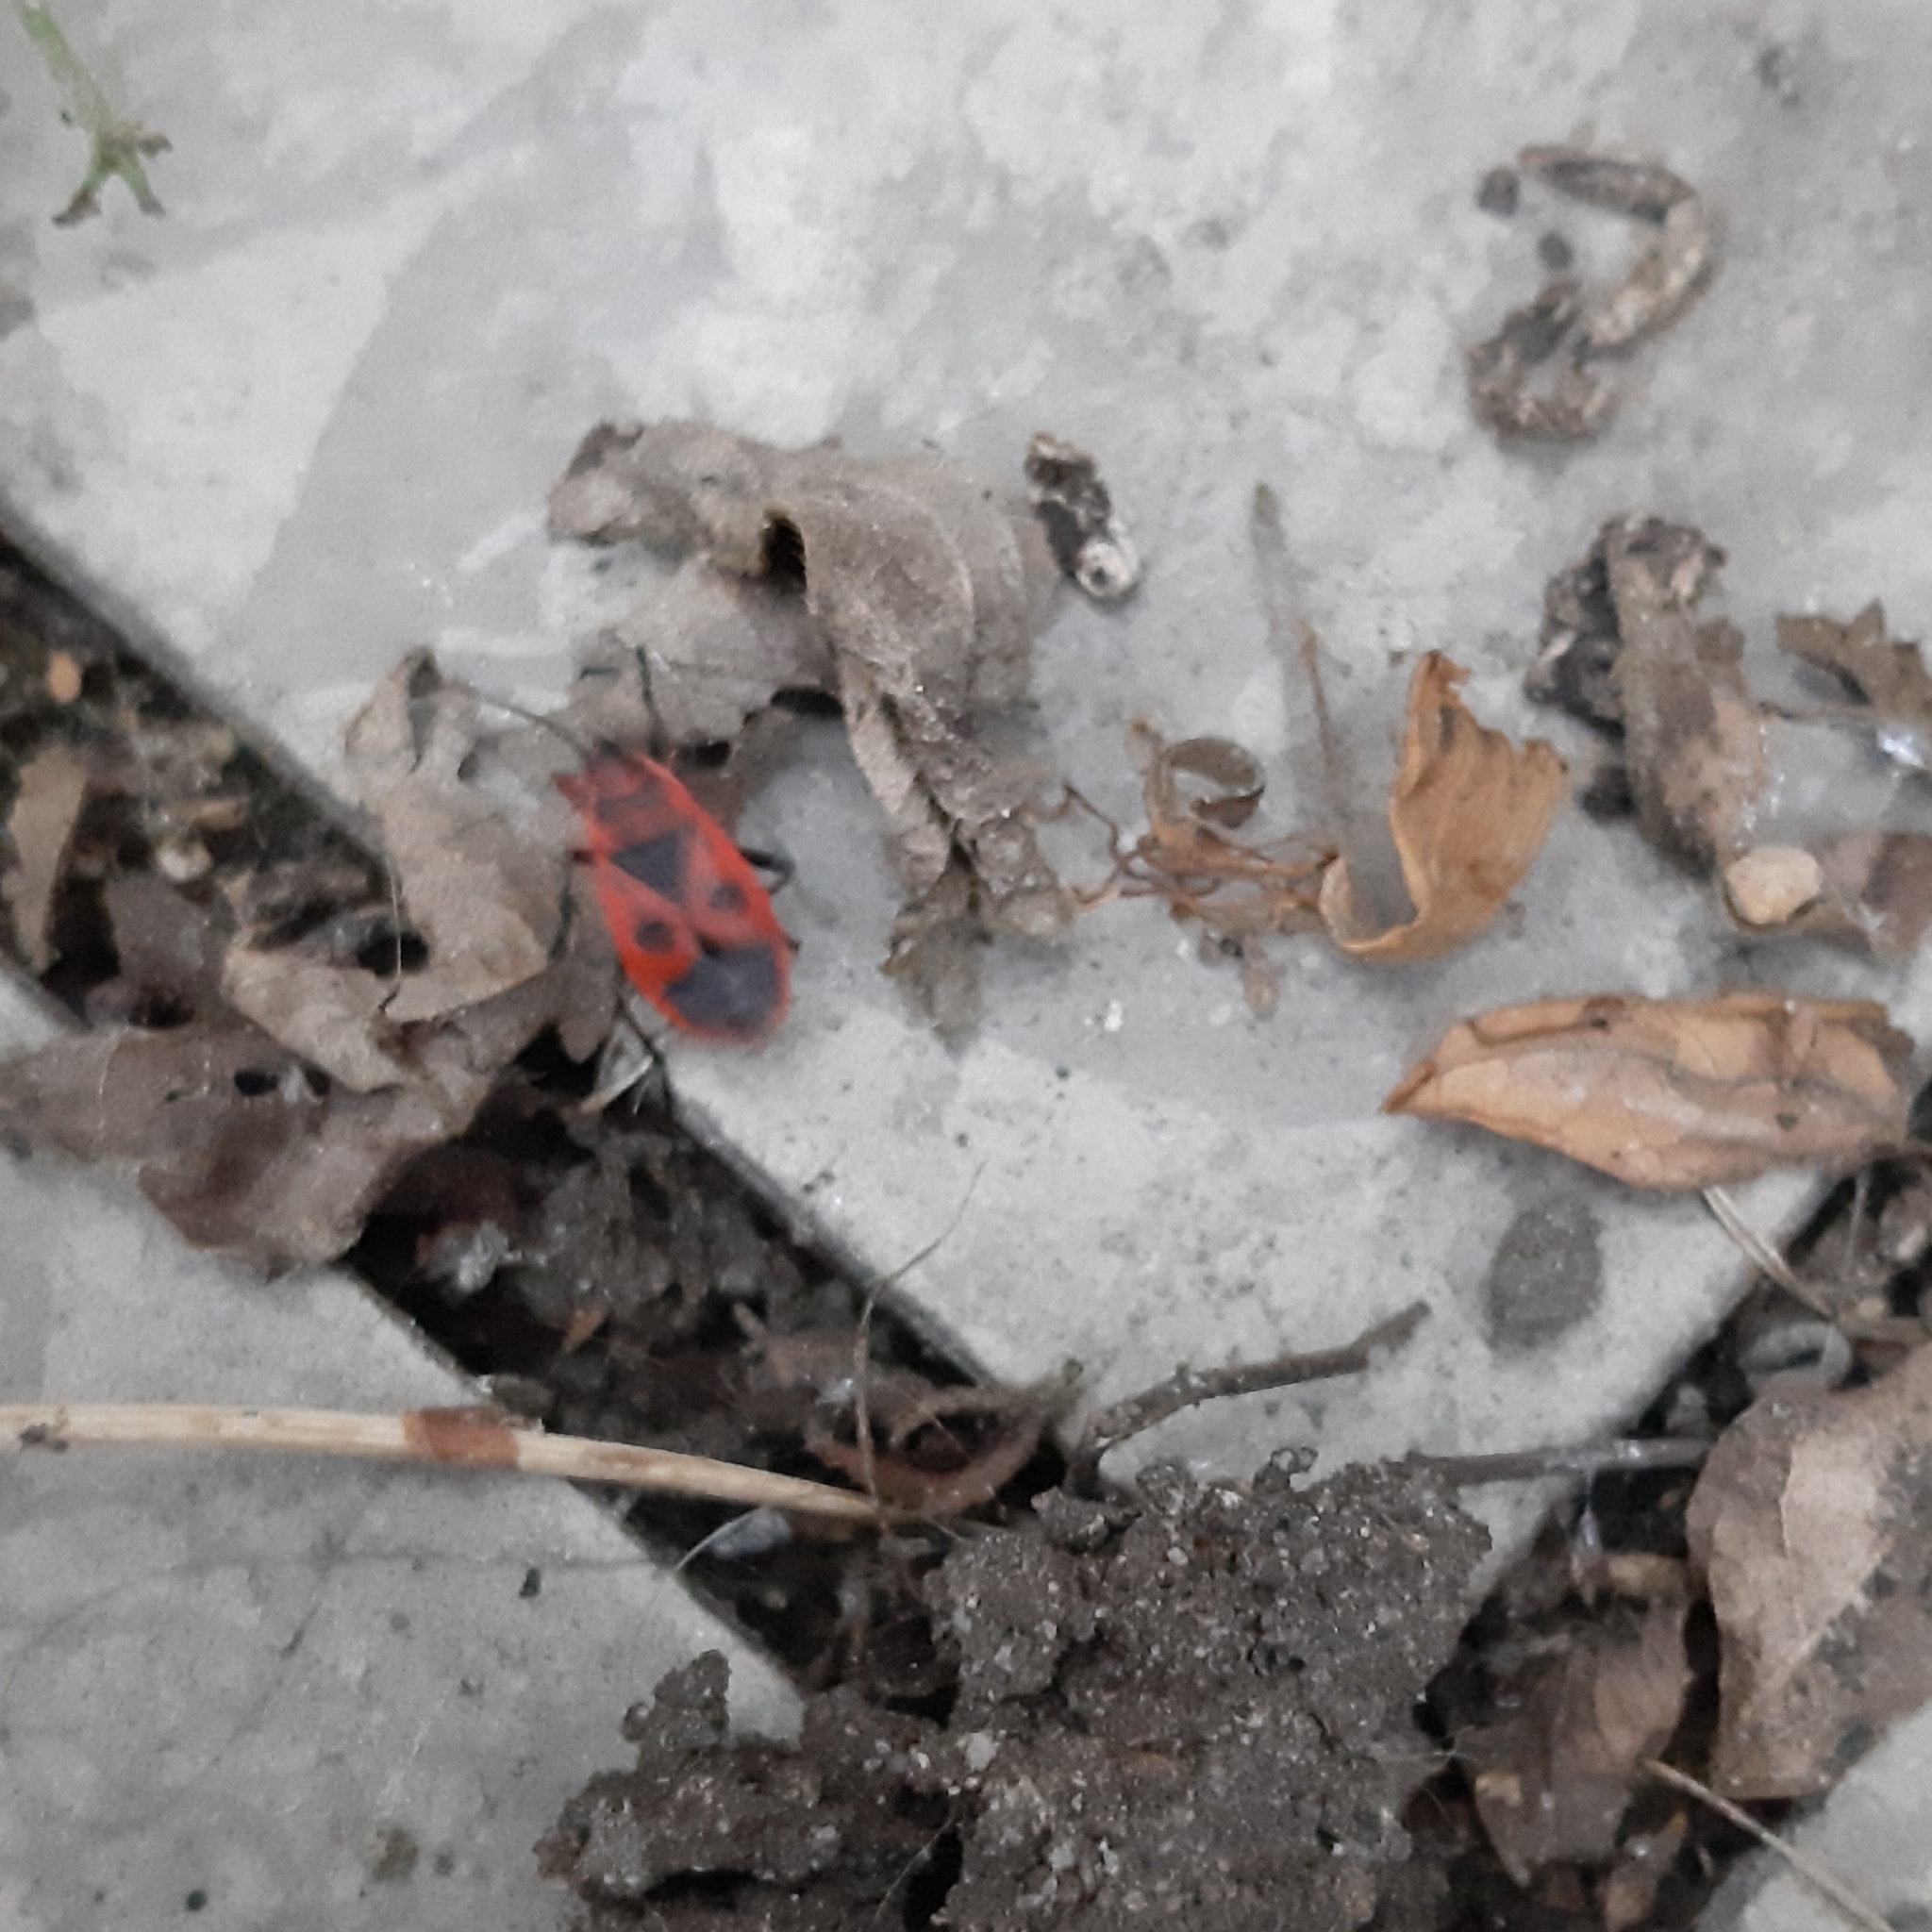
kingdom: Animalia
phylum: Arthropoda
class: Insecta
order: Hemiptera
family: Pyrrhocoridae
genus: Pyrrhocoris
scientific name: Pyrrhocoris apterus
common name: Firebug
